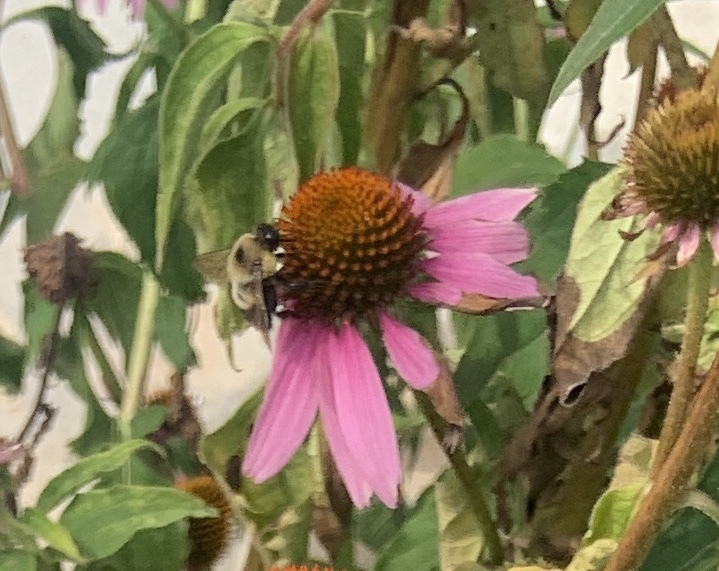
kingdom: Animalia
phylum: Arthropoda
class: Insecta
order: Hymenoptera
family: Apidae
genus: Bombus
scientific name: Bombus griseocollis
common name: Brown-belted bumble bee
